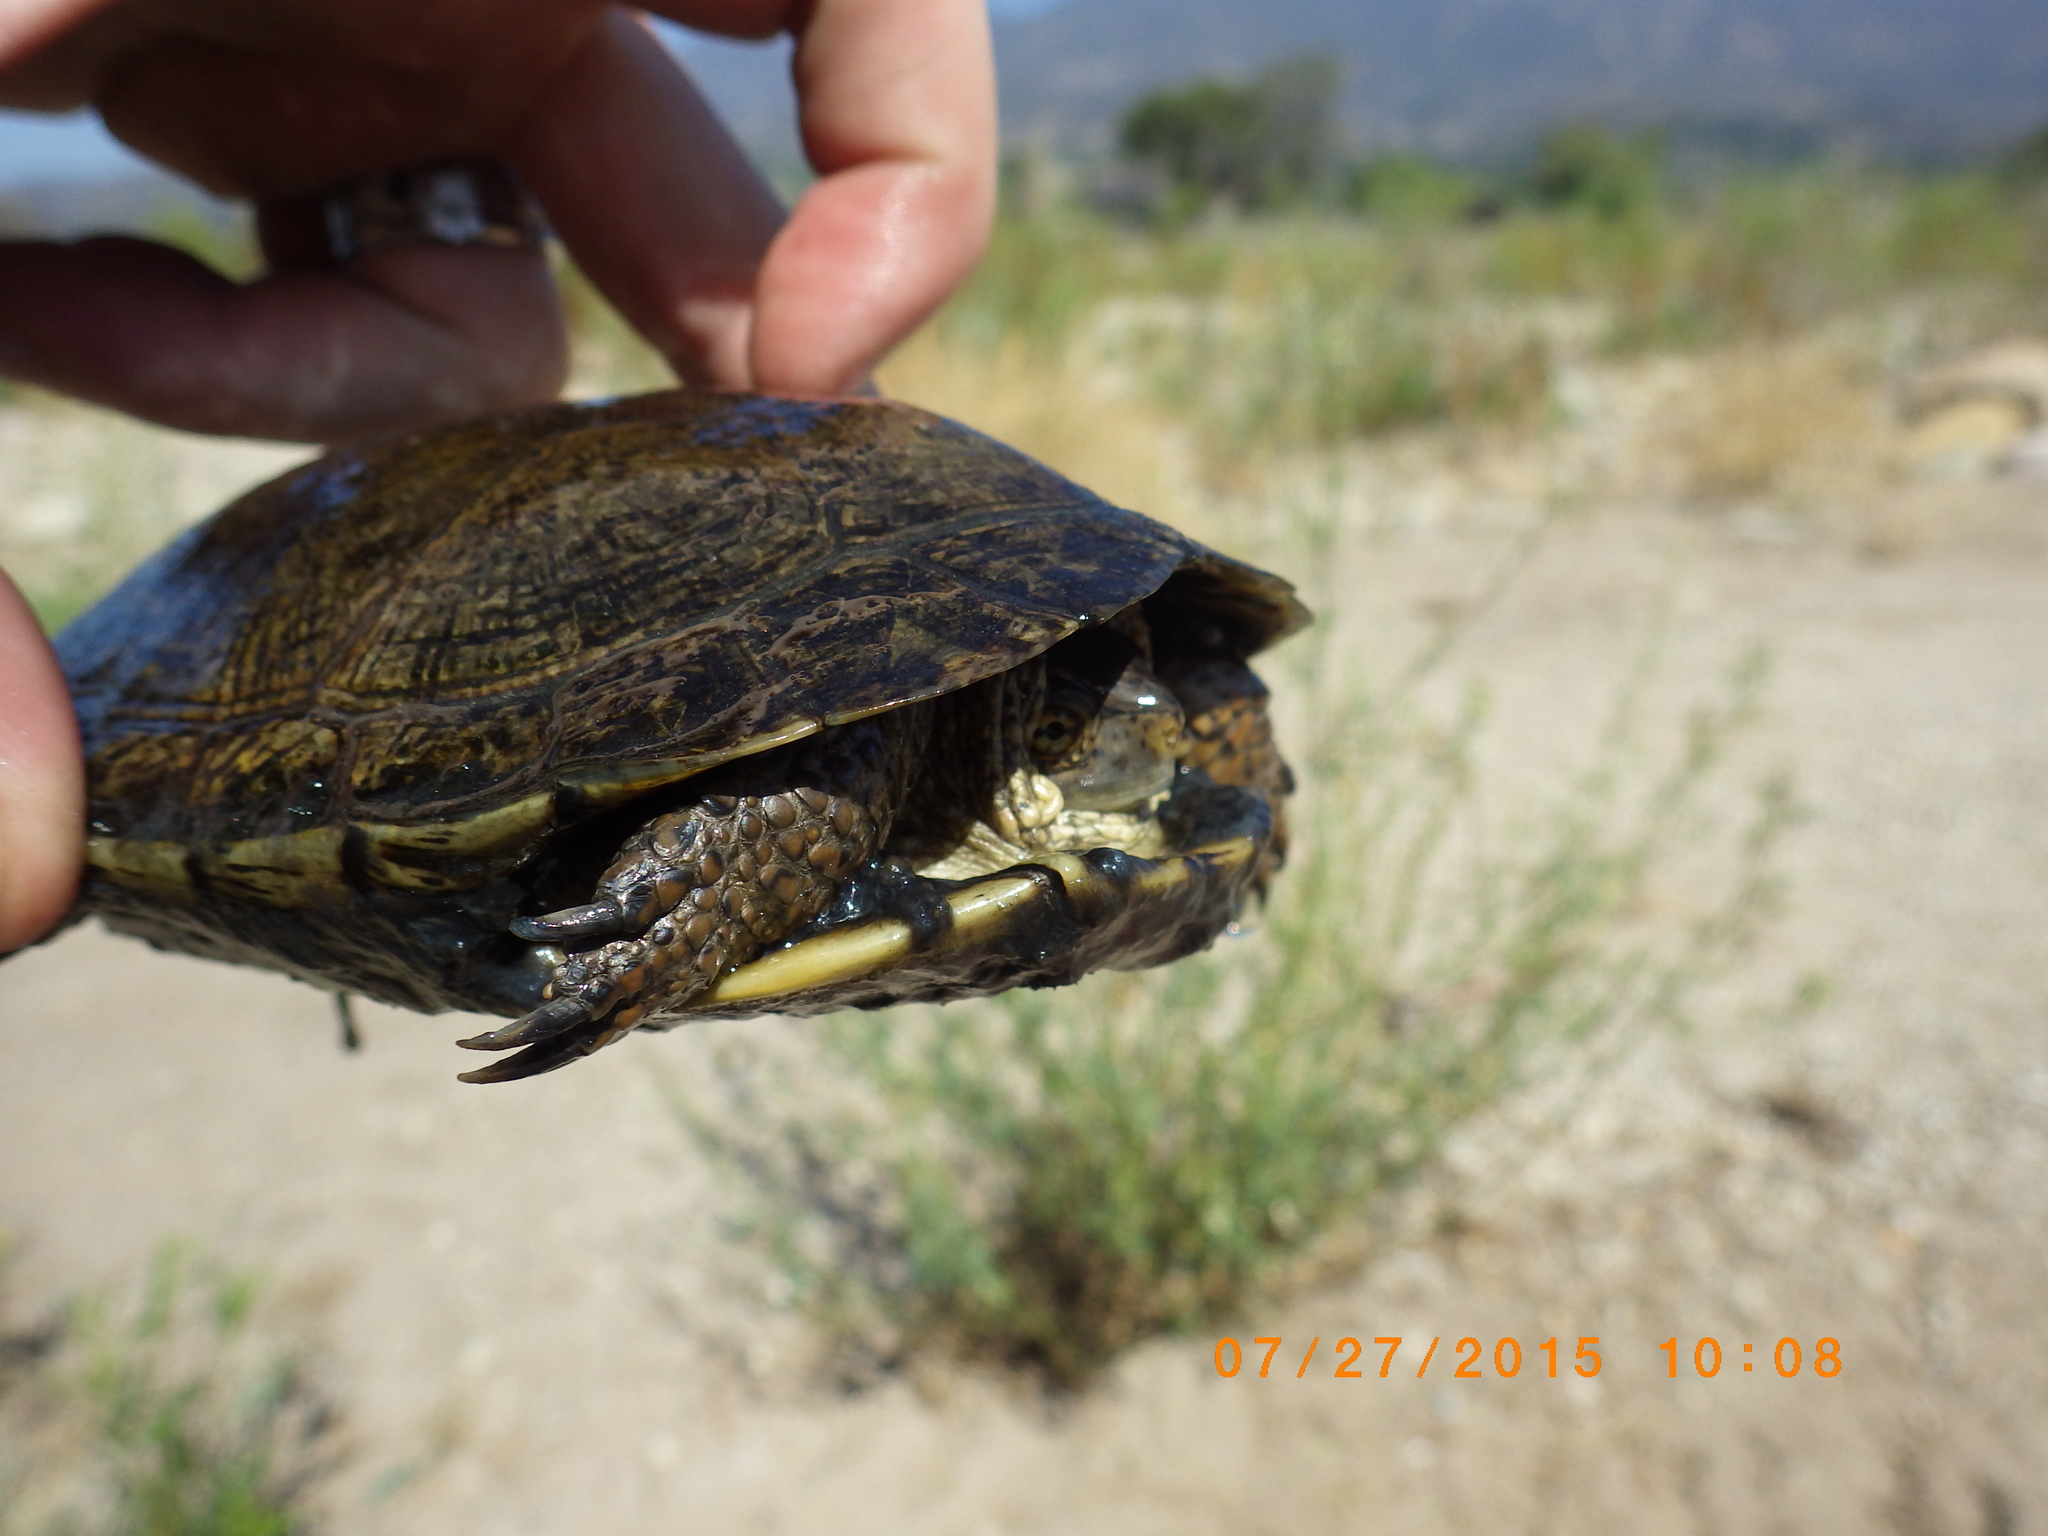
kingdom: Animalia
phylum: Chordata
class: Testudines
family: Emydidae
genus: Actinemys
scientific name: Actinemys marmorata
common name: Western pond turtle
